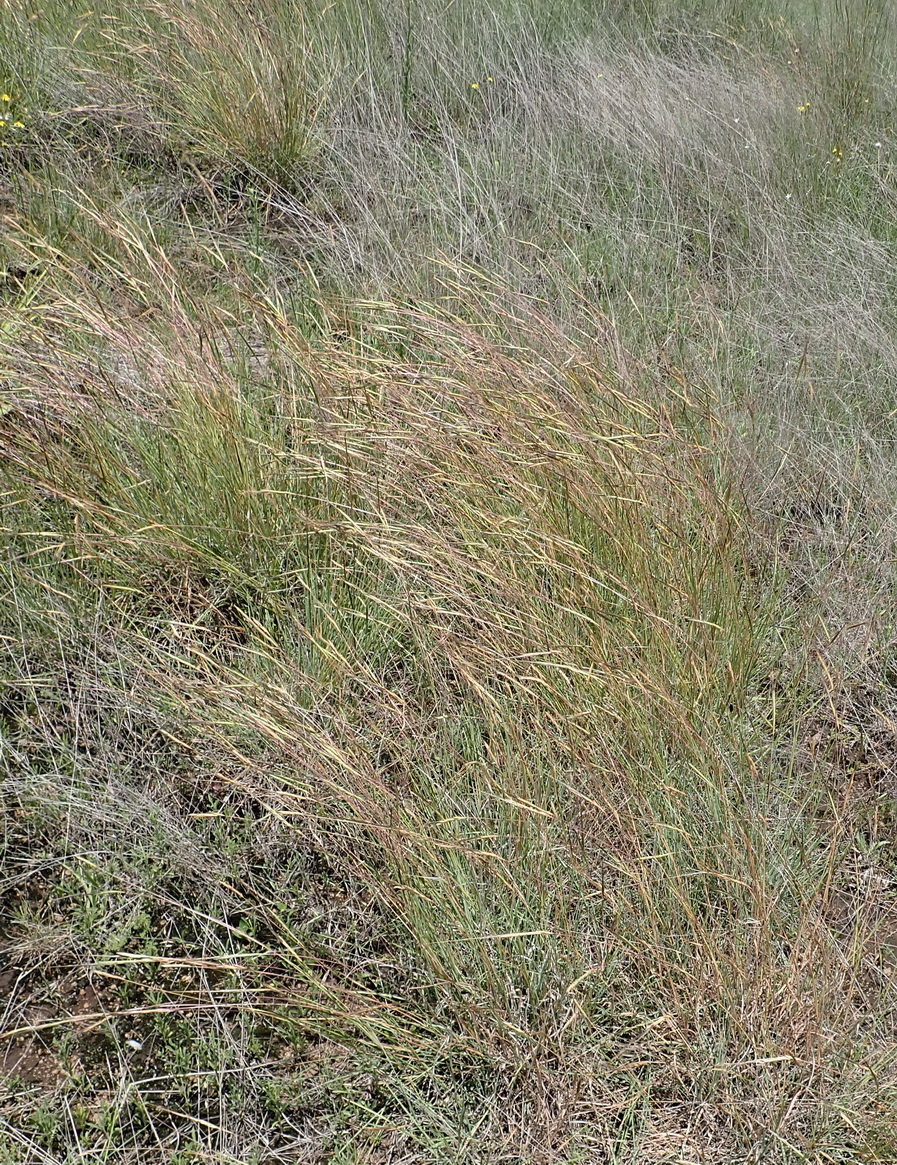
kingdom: Plantae
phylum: Tracheophyta
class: Liliopsida
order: Poales
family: Poaceae
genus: Heteropogon
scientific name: Heteropogon contortus
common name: Tanglehead
